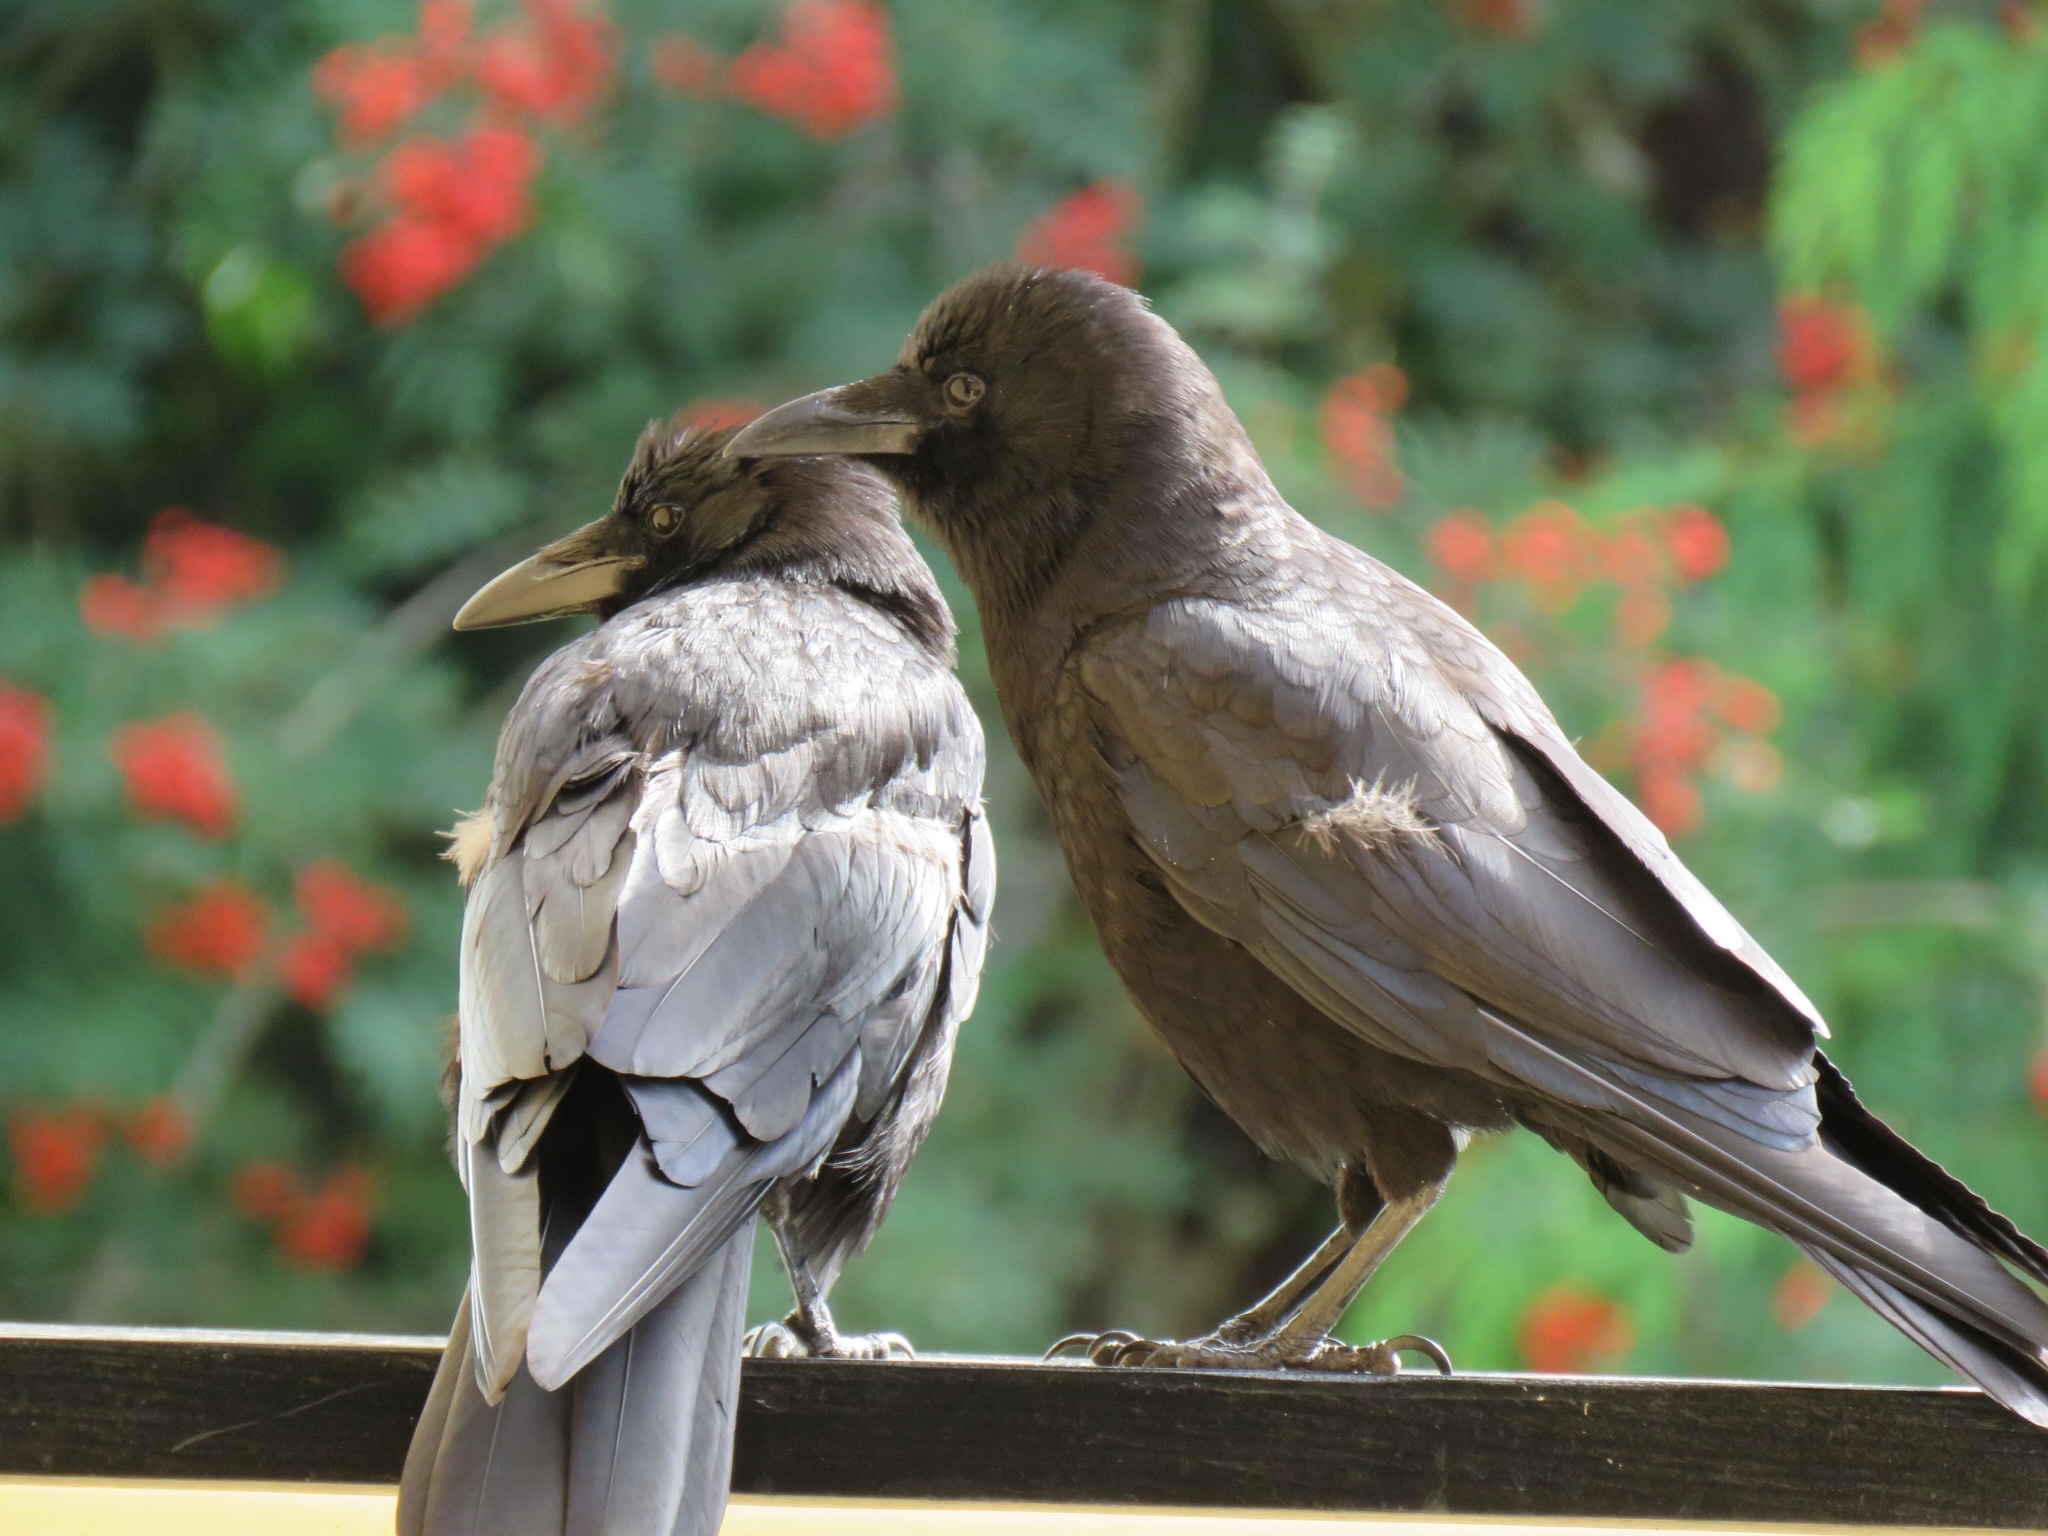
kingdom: Animalia
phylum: Chordata
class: Aves
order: Passeriformes
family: Corvidae
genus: Corvus
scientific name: Corvus brachyrhynchos
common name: American crow
